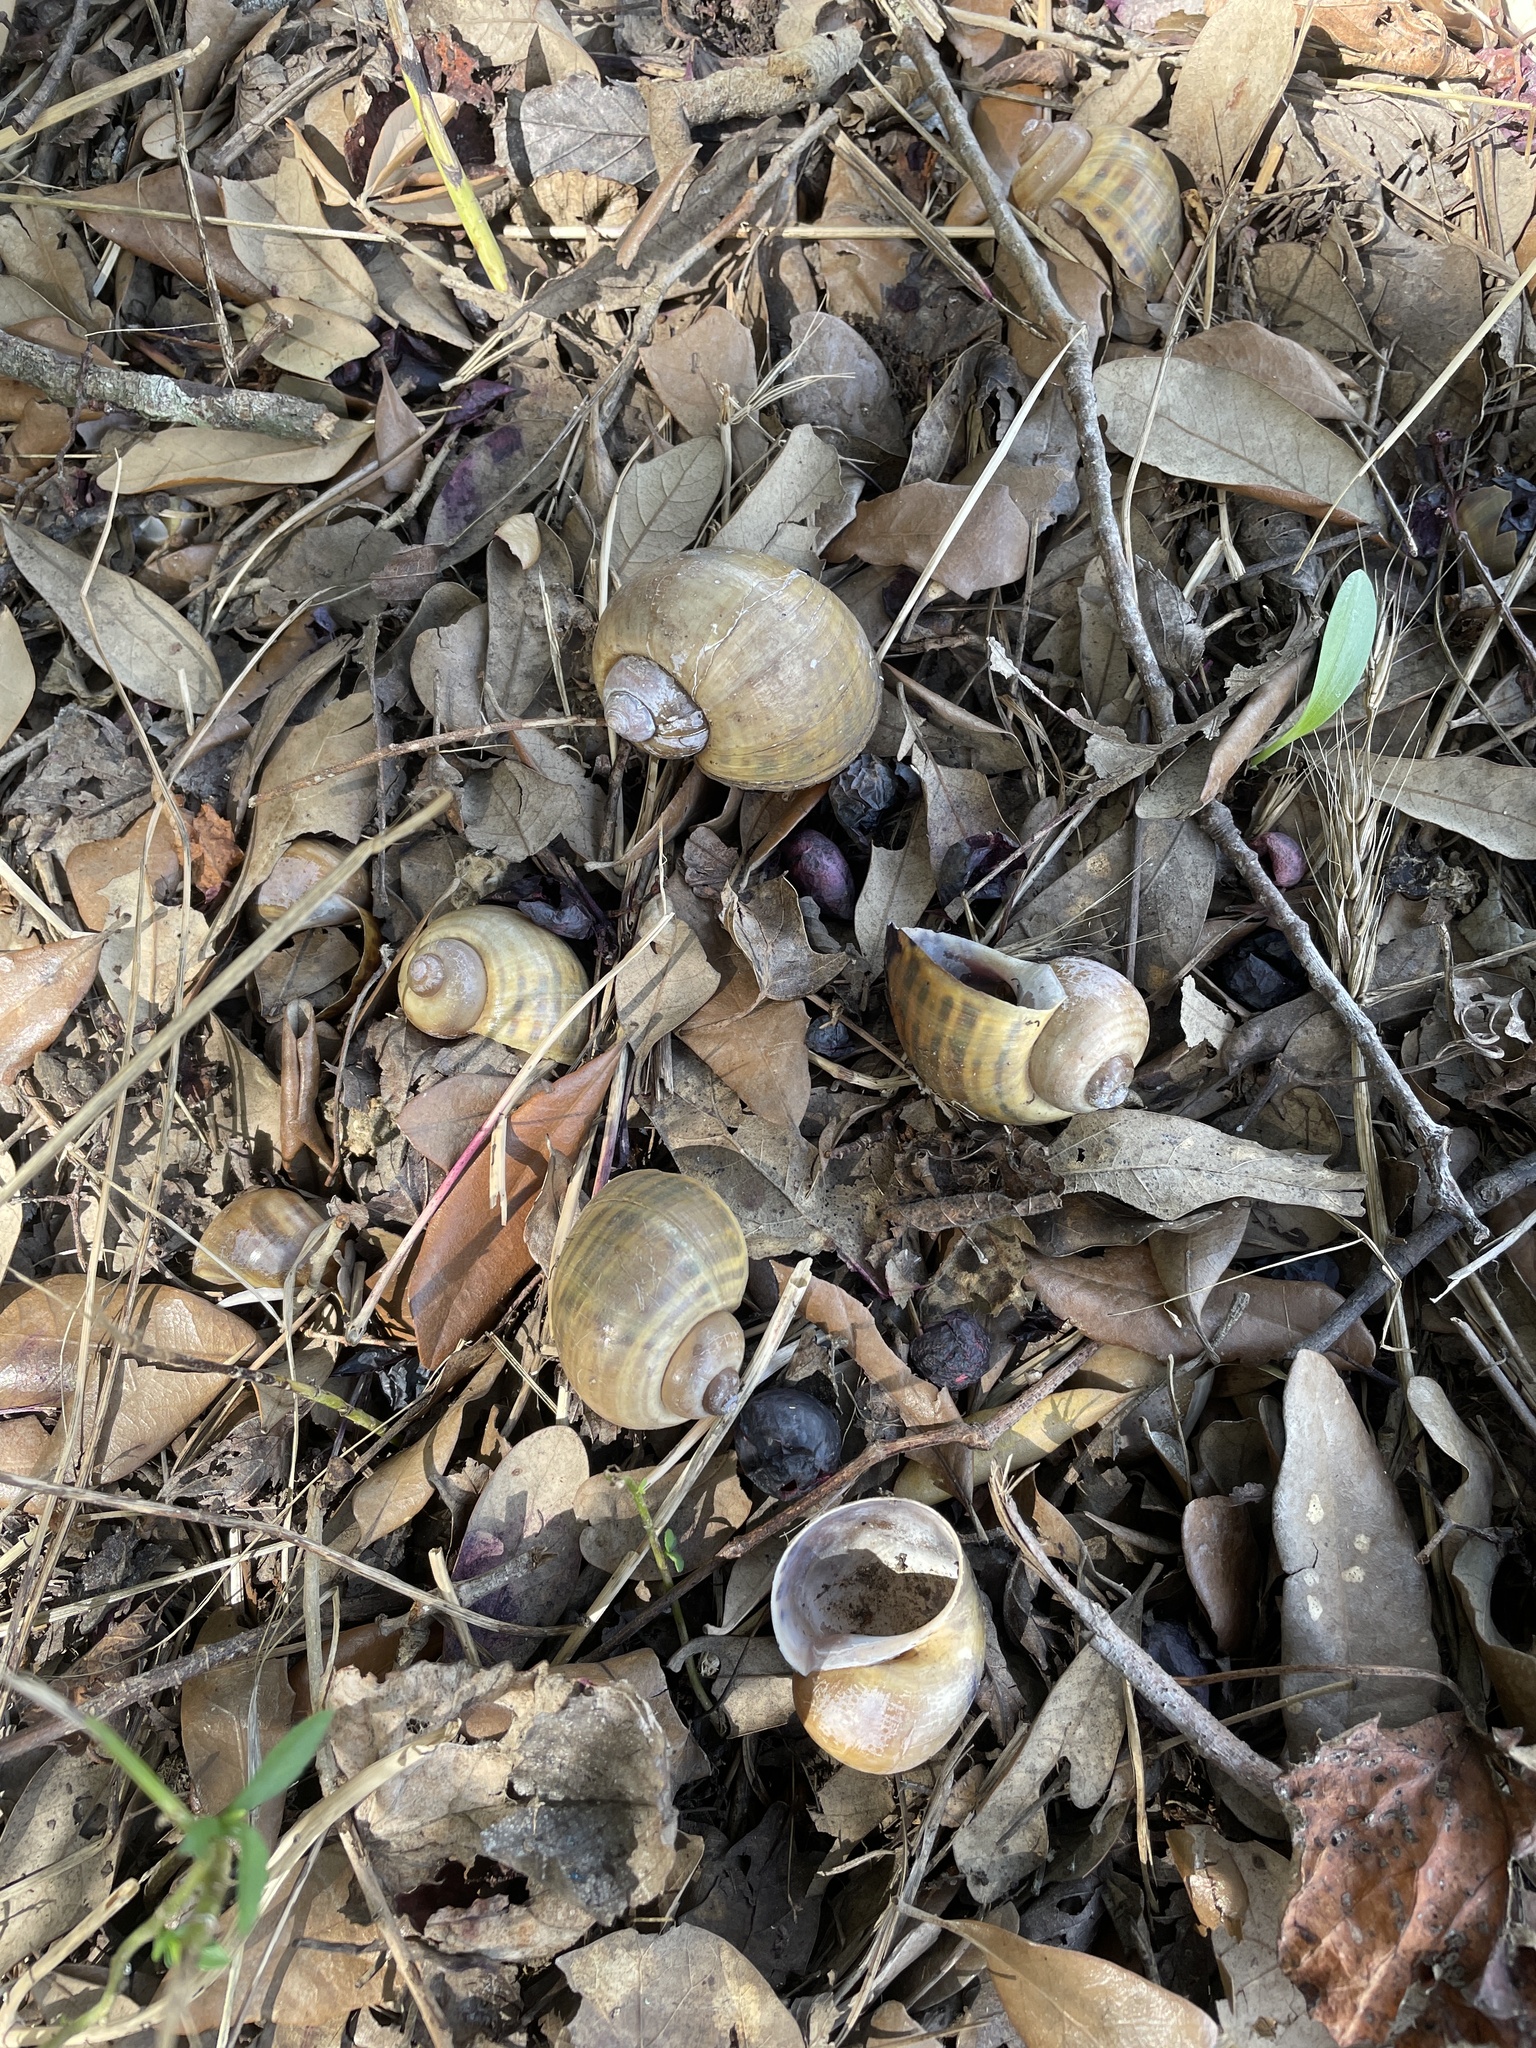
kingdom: Animalia
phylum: Mollusca
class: Gastropoda
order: Architaenioglossa
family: Ampullariidae
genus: Pomacea
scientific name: Pomacea maculata
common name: Giant applesnail
